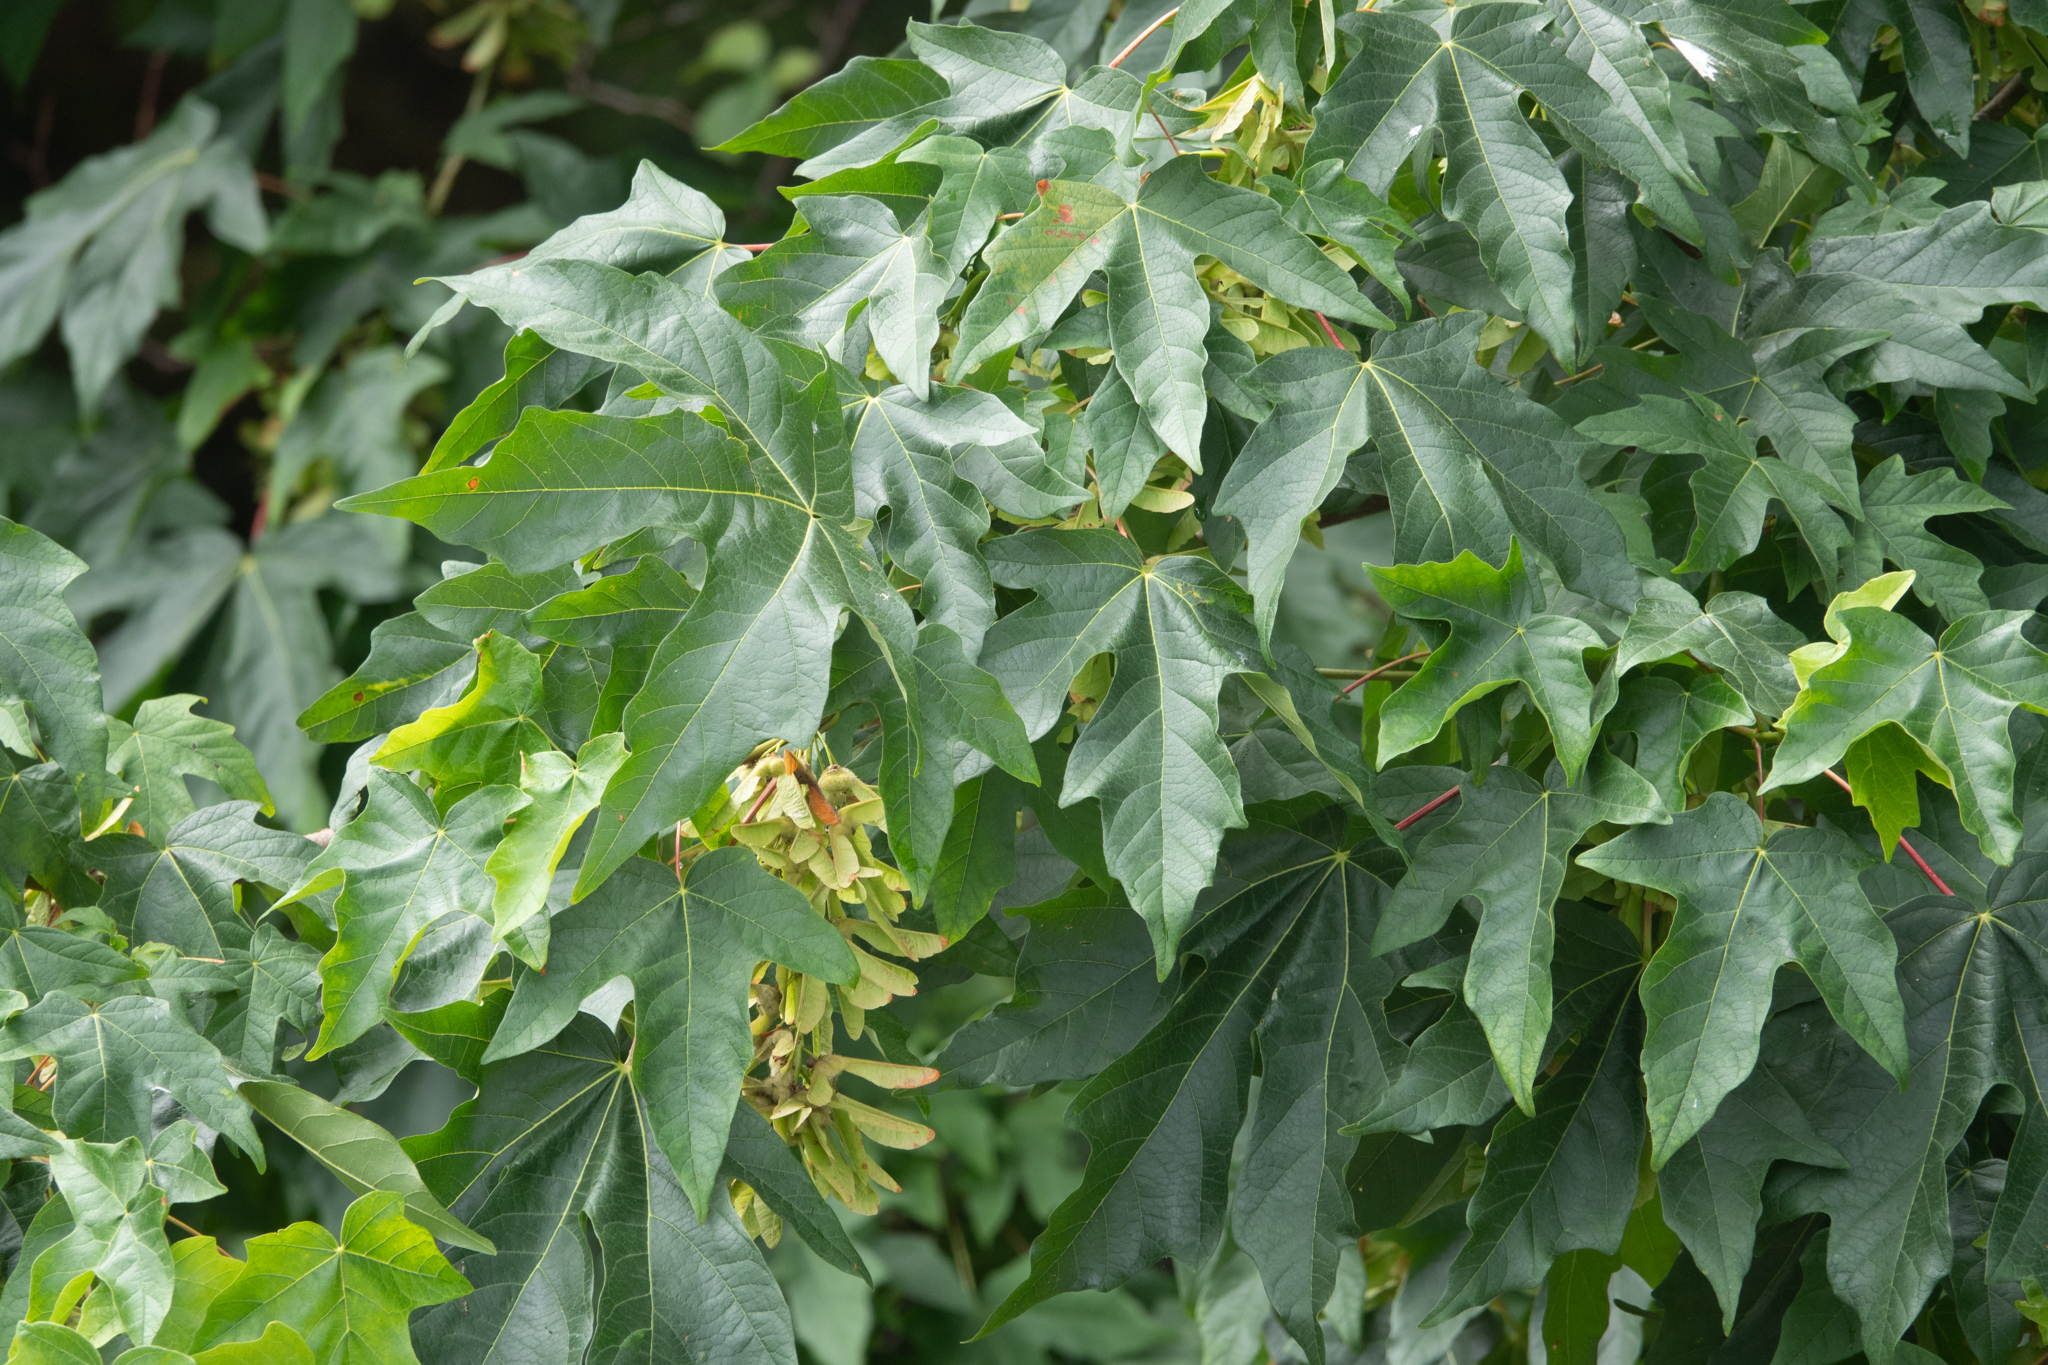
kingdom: Plantae
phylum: Tracheophyta
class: Magnoliopsida
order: Sapindales
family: Sapindaceae
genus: Acer
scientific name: Acer macrophyllum
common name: Oregon maple
